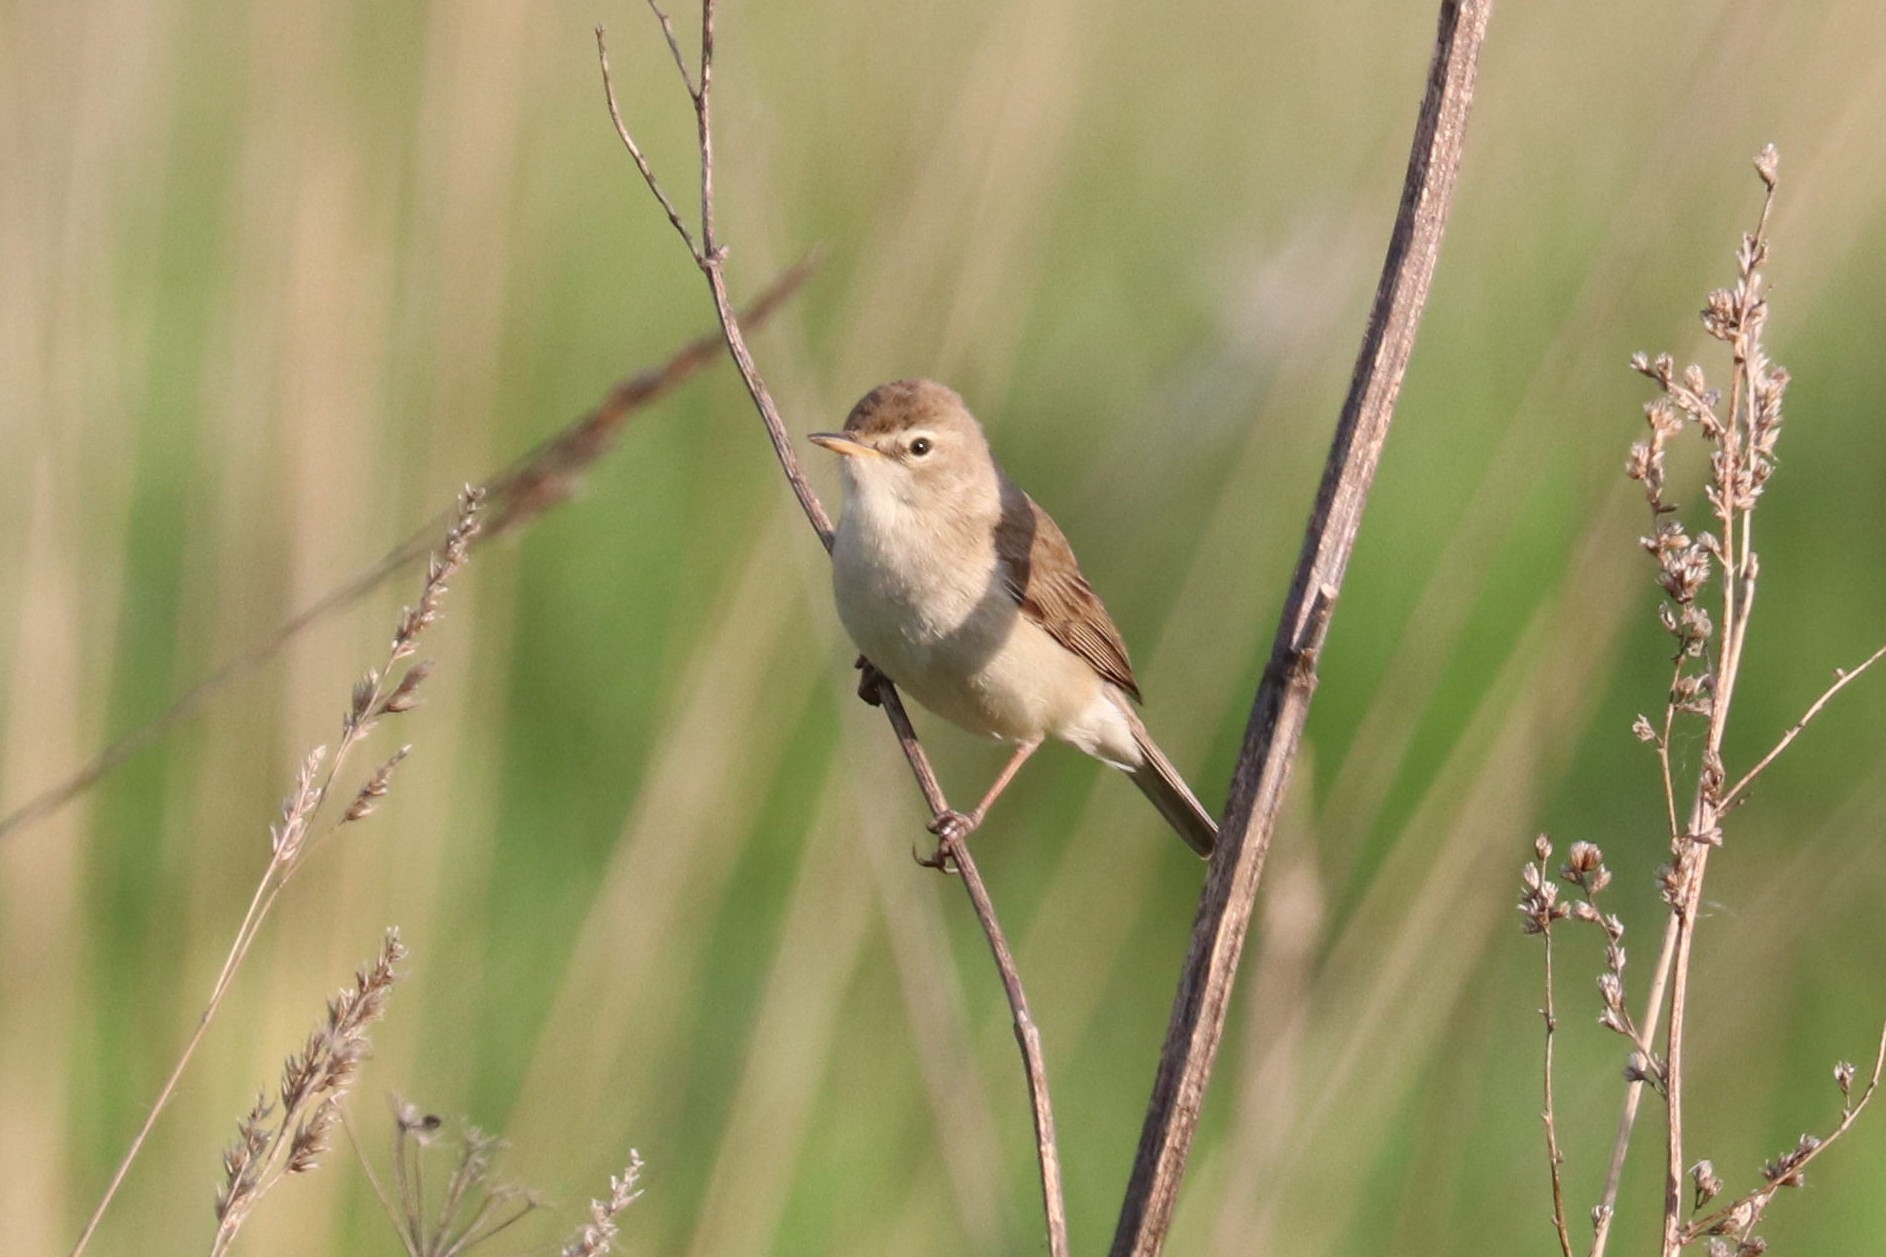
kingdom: Animalia
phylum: Chordata
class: Aves
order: Passeriformes
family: Acrocephalidae
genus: Iduna
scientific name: Iduna caligata
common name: Booted warbler
